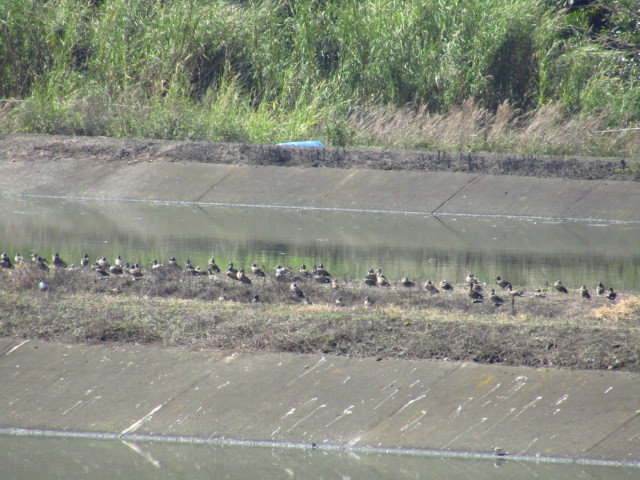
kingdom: Animalia
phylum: Chordata
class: Aves
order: Anseriformes
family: Anatidae
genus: Spatula
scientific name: Spatula clypeata
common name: Northern shoveler
